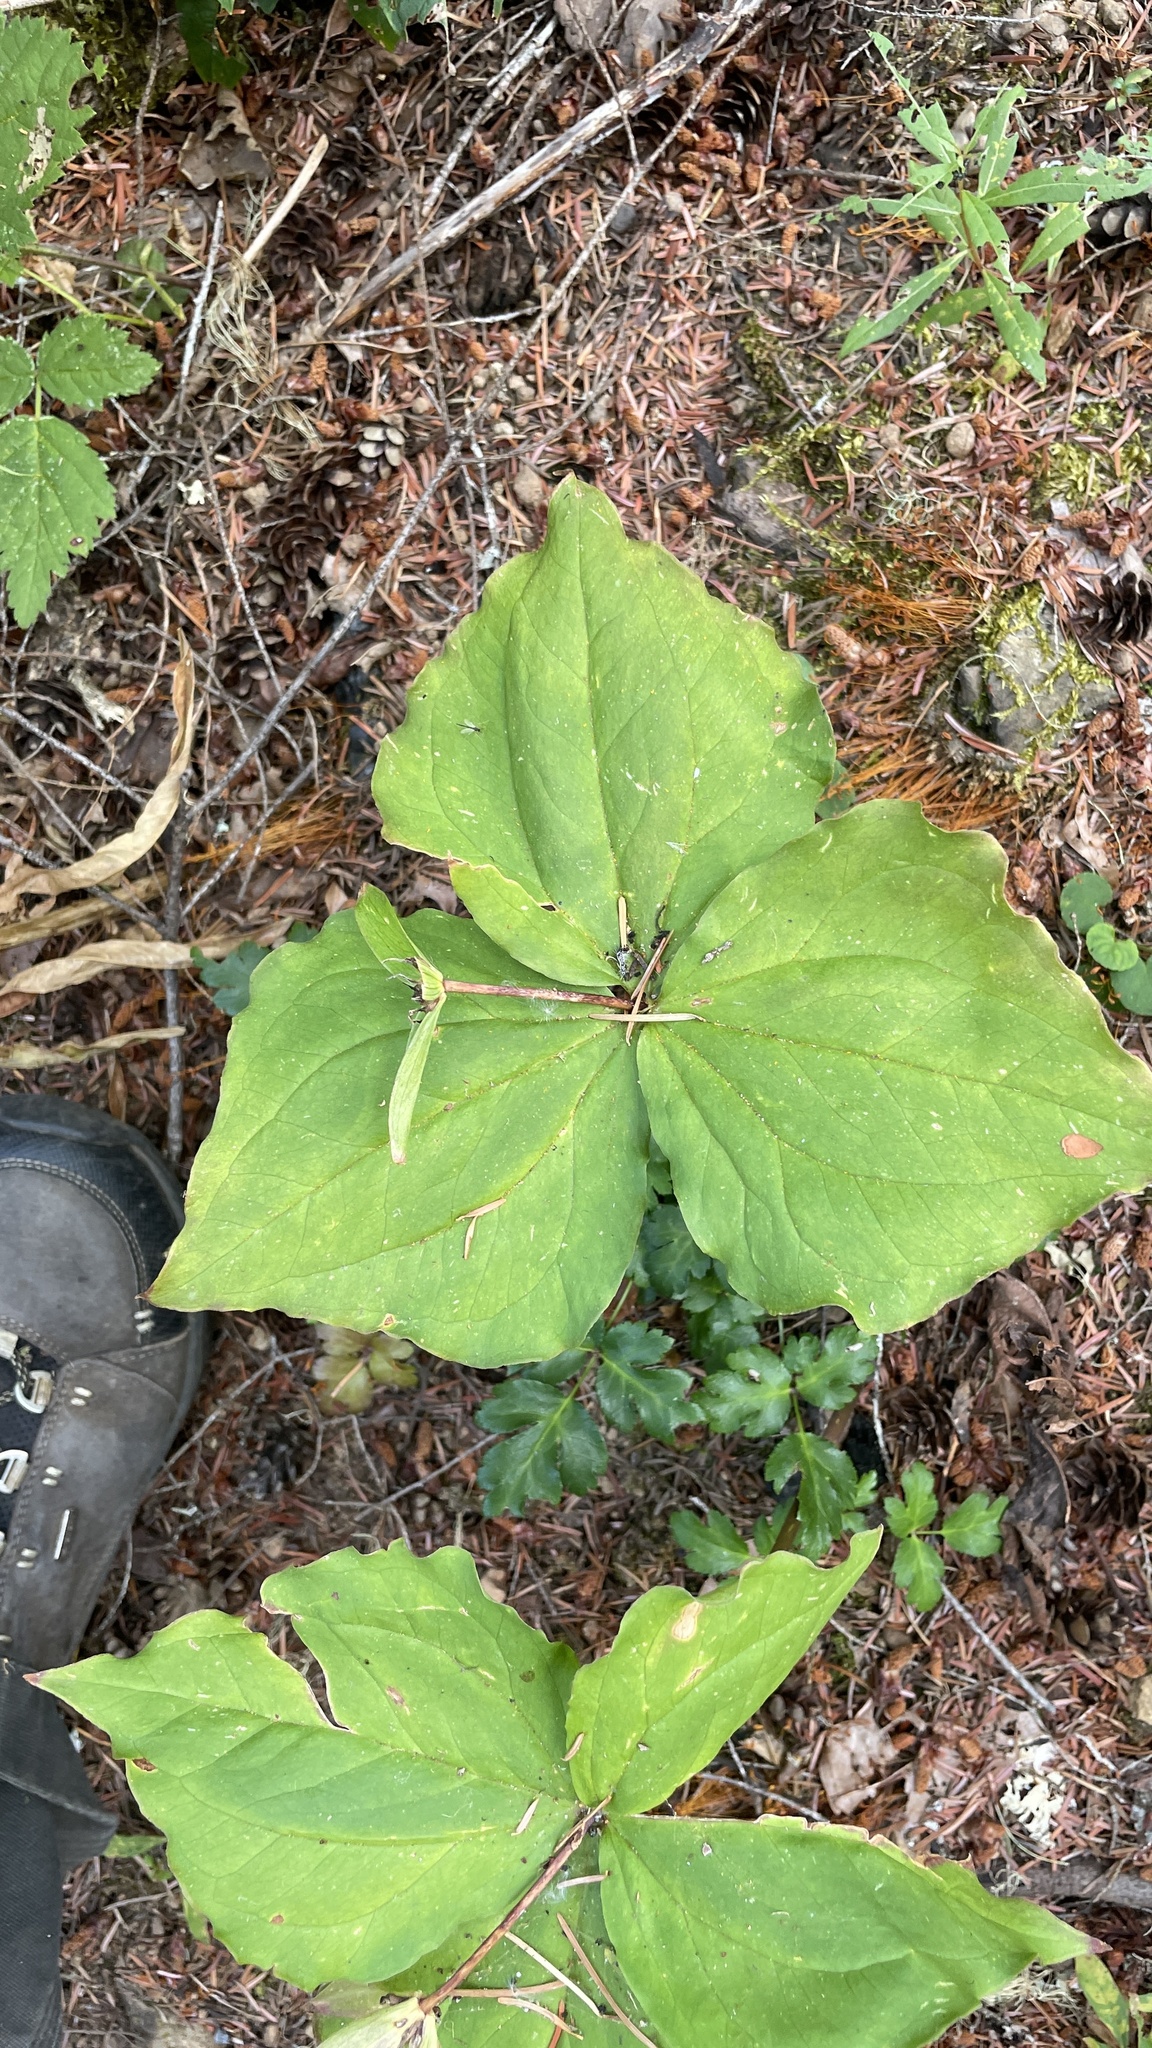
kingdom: Plantae
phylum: Tracheophyta
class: Liliopsida
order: Liliales
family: Melanthiaceae
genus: Trillium
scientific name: Trillium ovatum
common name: Pacific trillium
